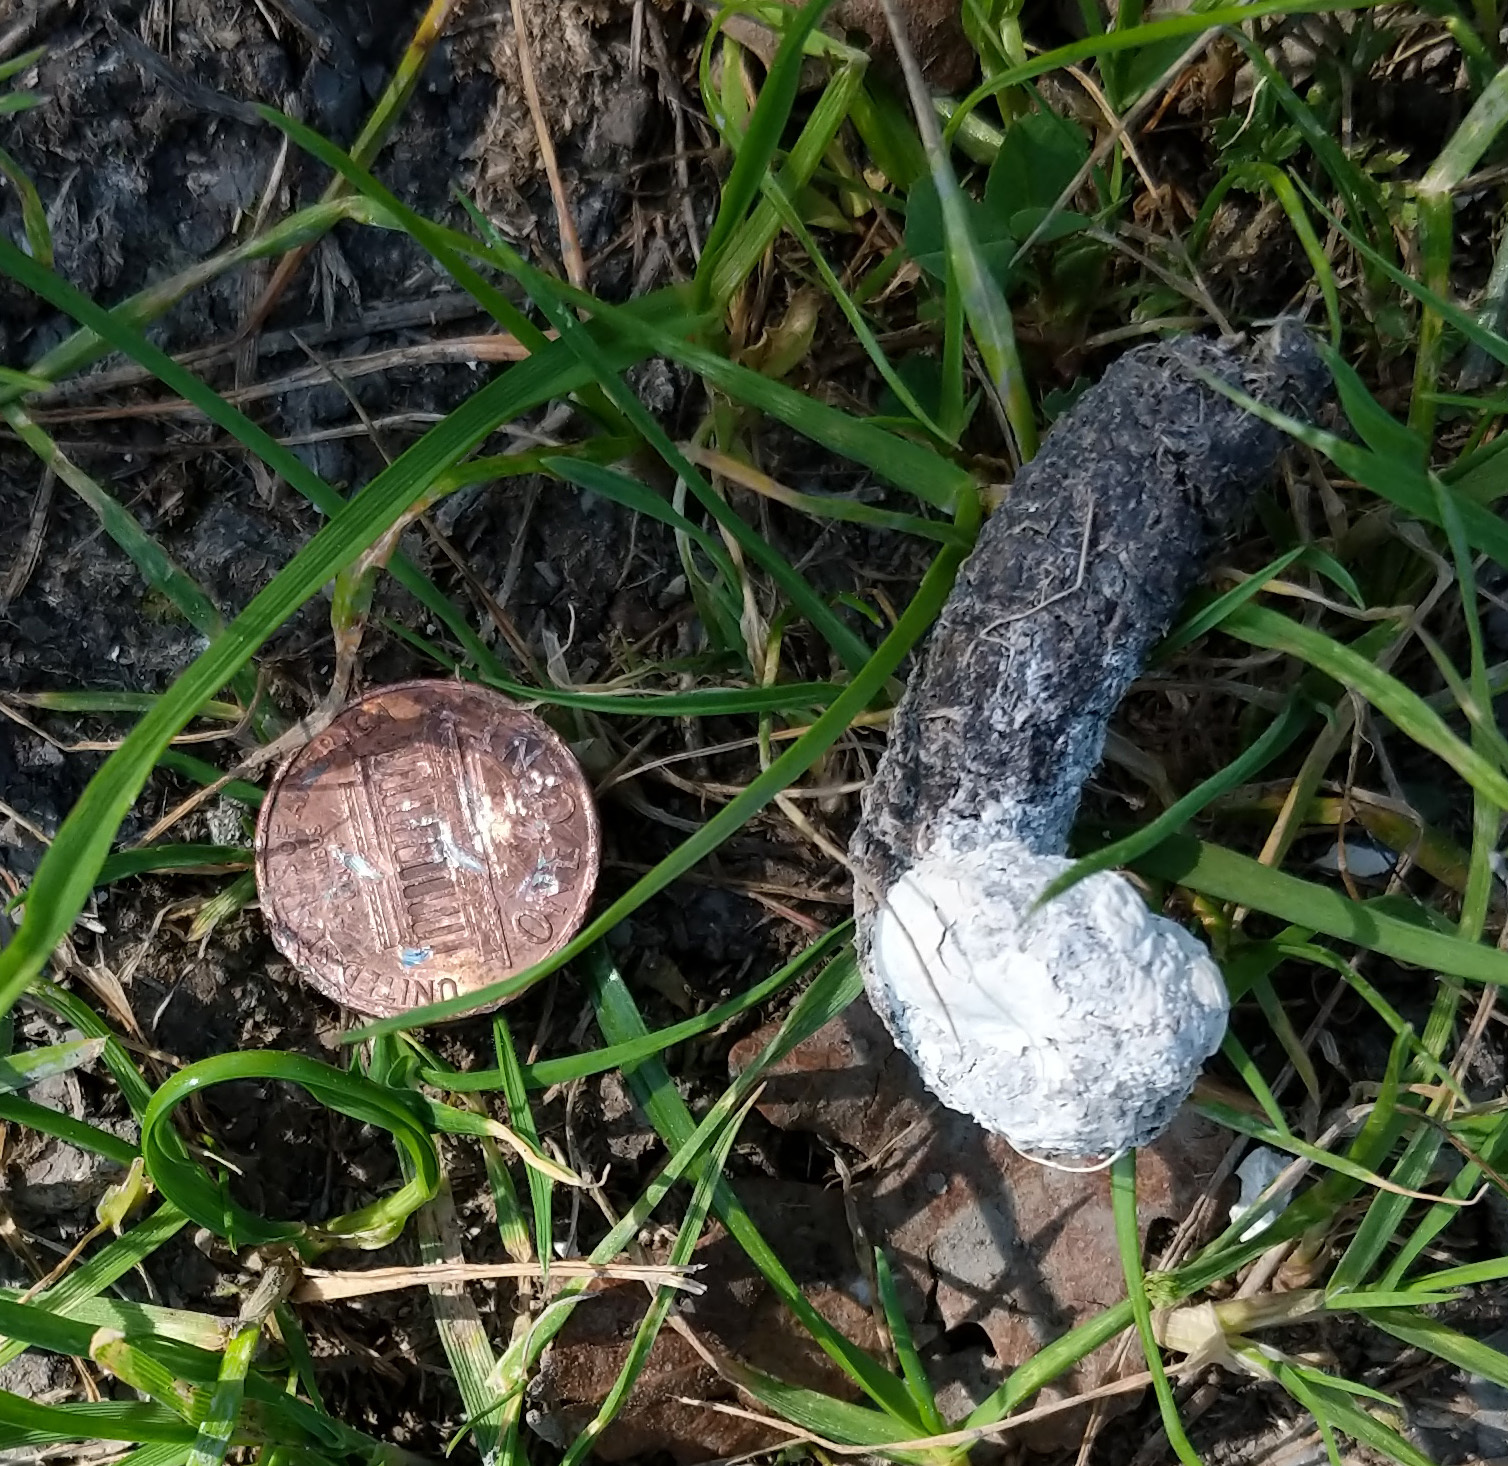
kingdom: Animalia
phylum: Chordata
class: Aves
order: Galliformes
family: Phasianidae
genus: Meleagris
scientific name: Meleagris gallopavo
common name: Wild turkey
